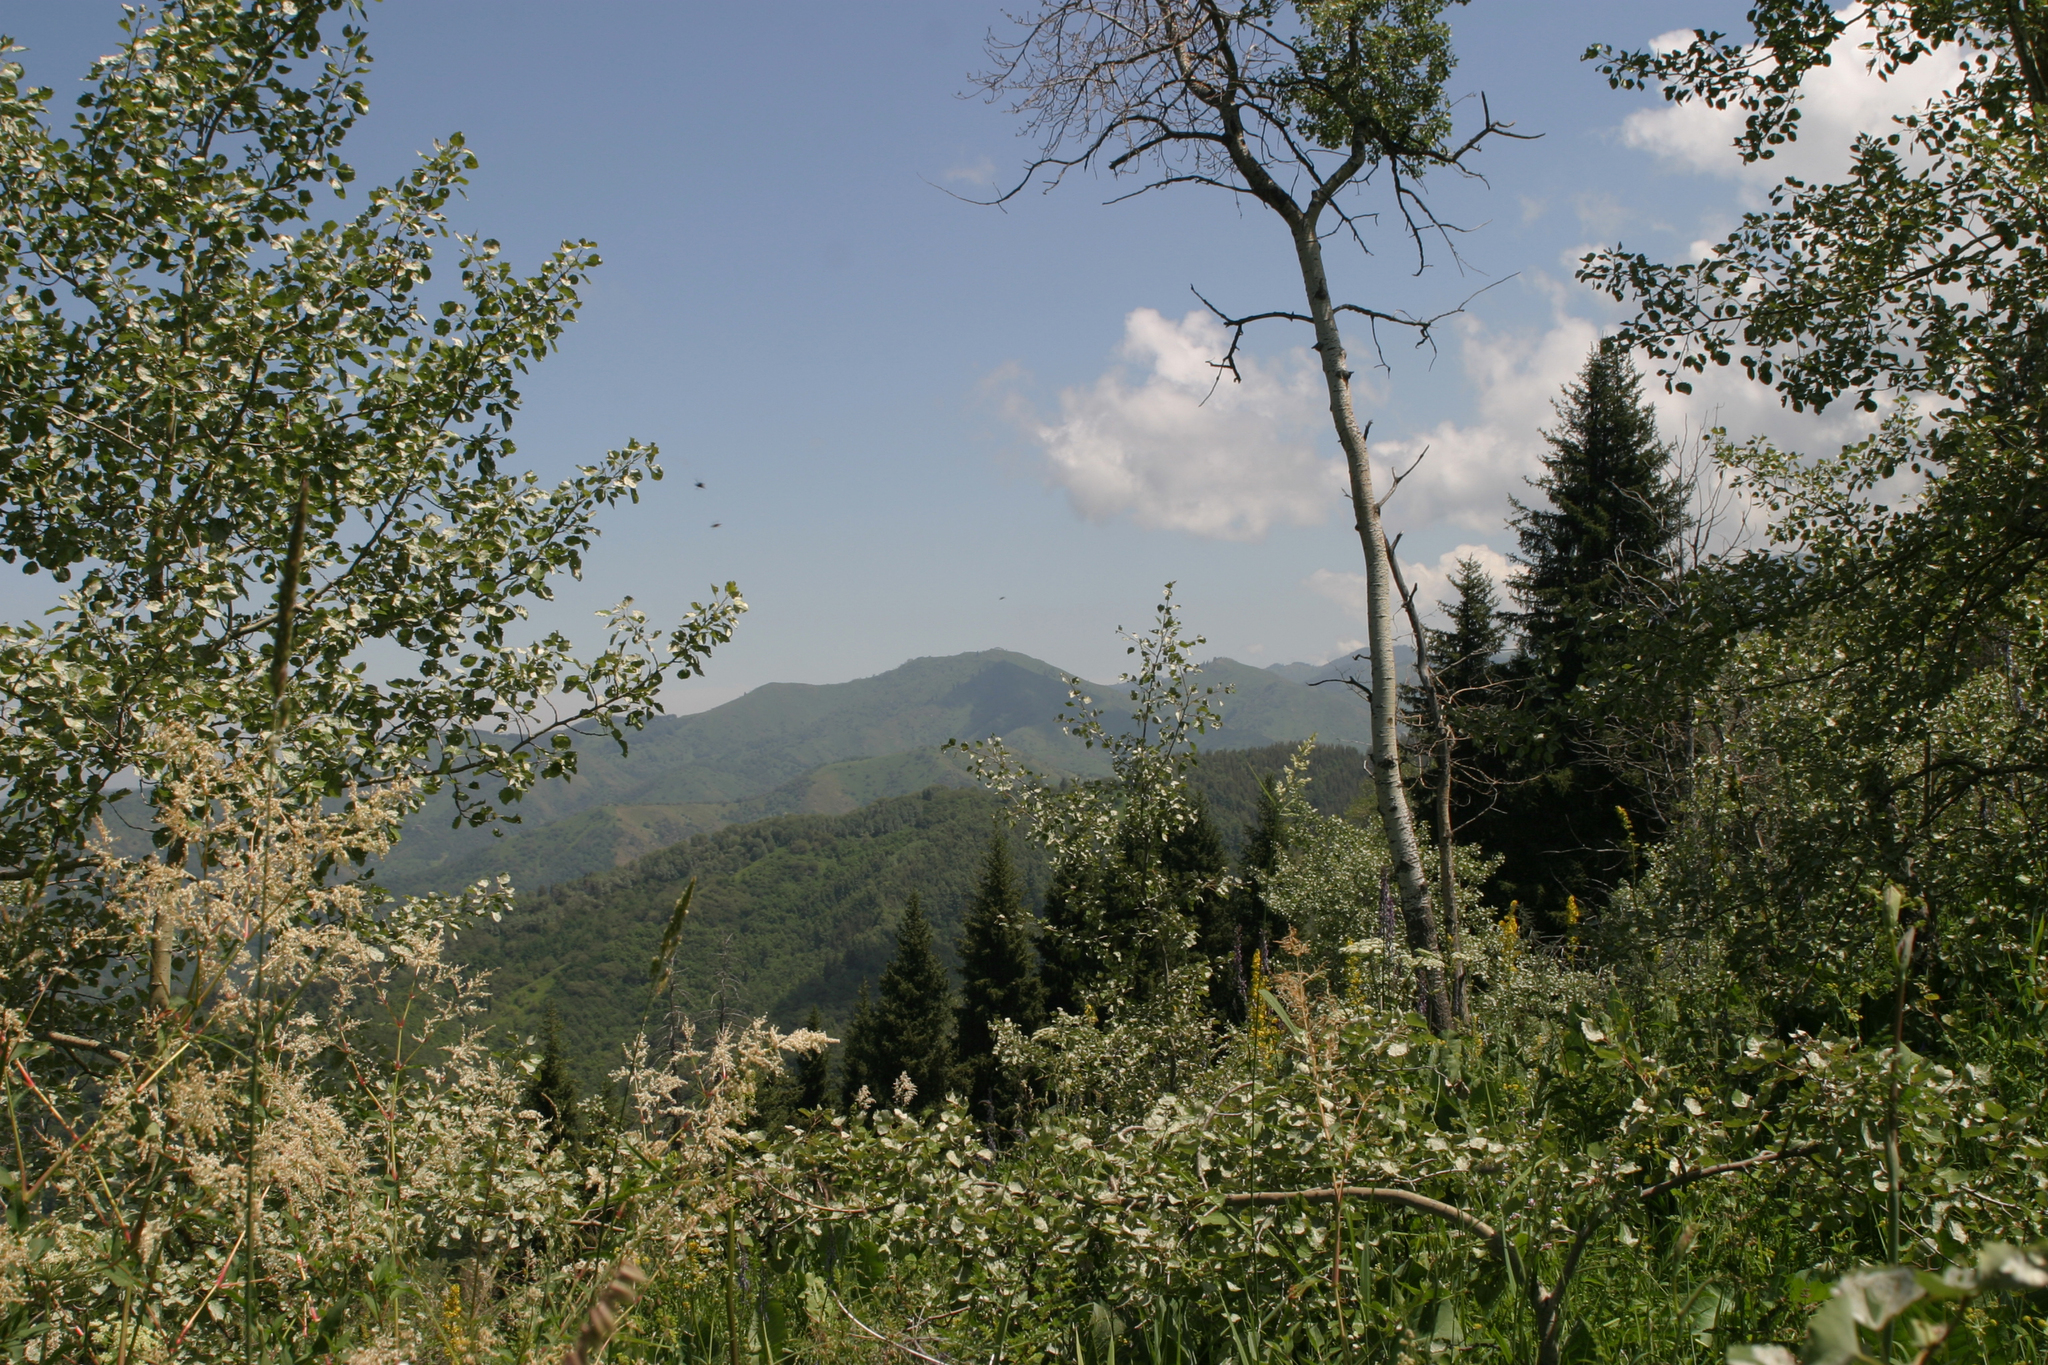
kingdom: Plantae
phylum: Tracheophyta
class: Magnoliopsida
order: Malpighiales
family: Salicaceae
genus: Populus
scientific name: Populus tremula
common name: European aspen
